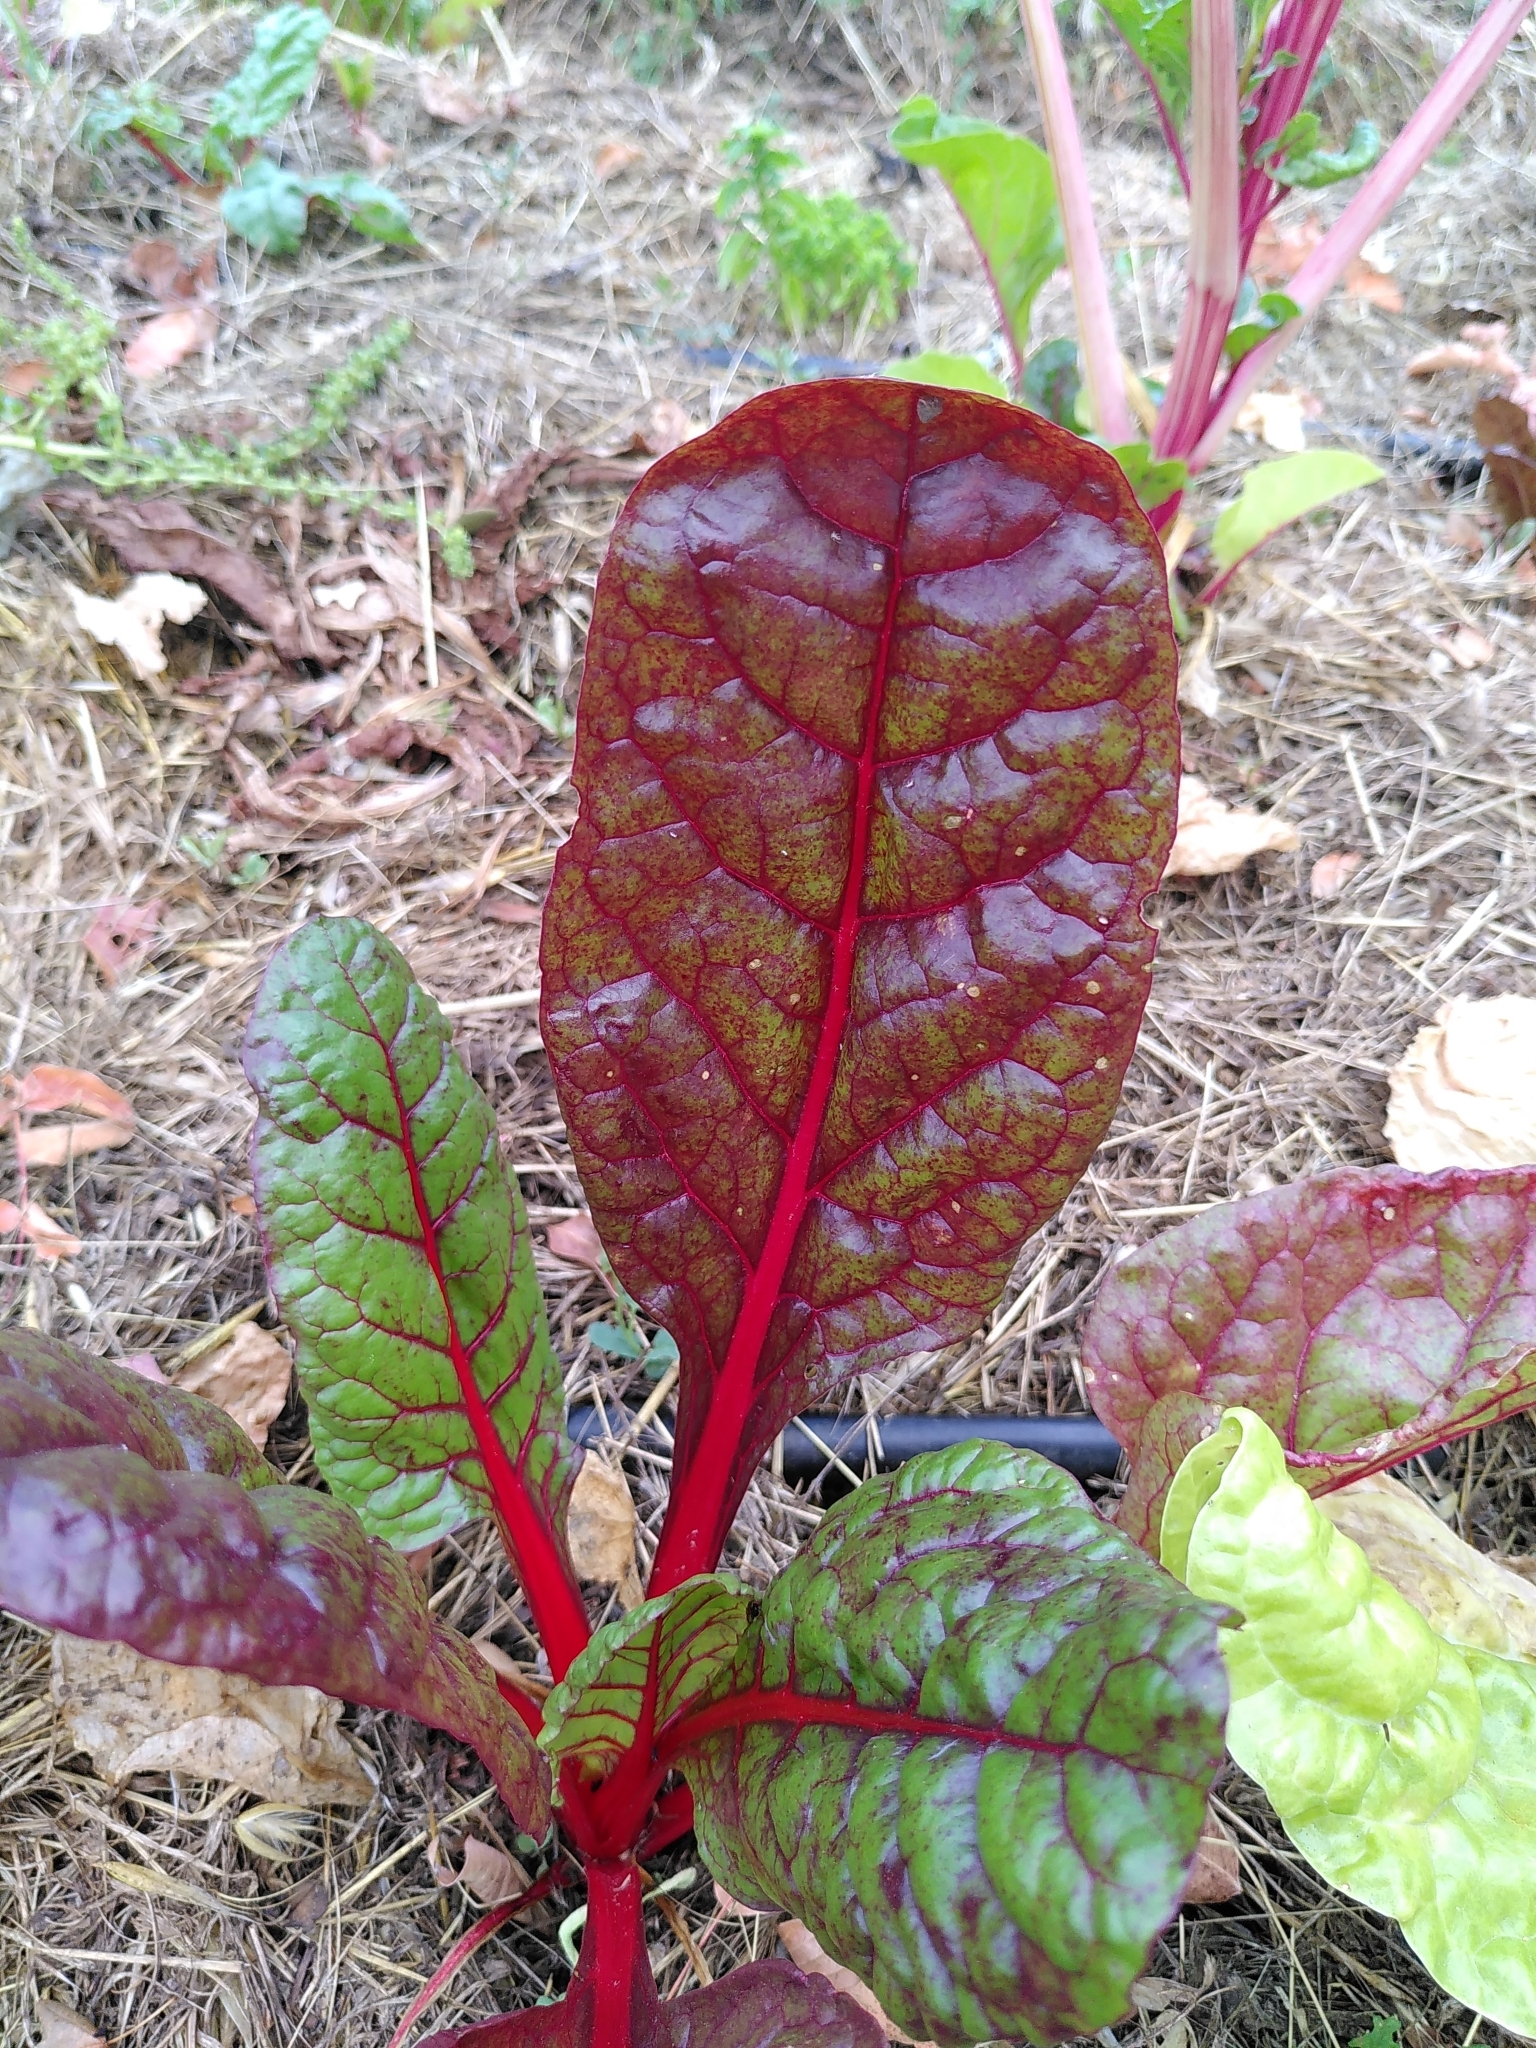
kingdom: Plantae
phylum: Tracheophyta
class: Magnoliopsida
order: Caryophyllales
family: Amaranthaceae
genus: Beta
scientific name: Beta vulgaris
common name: Beet
